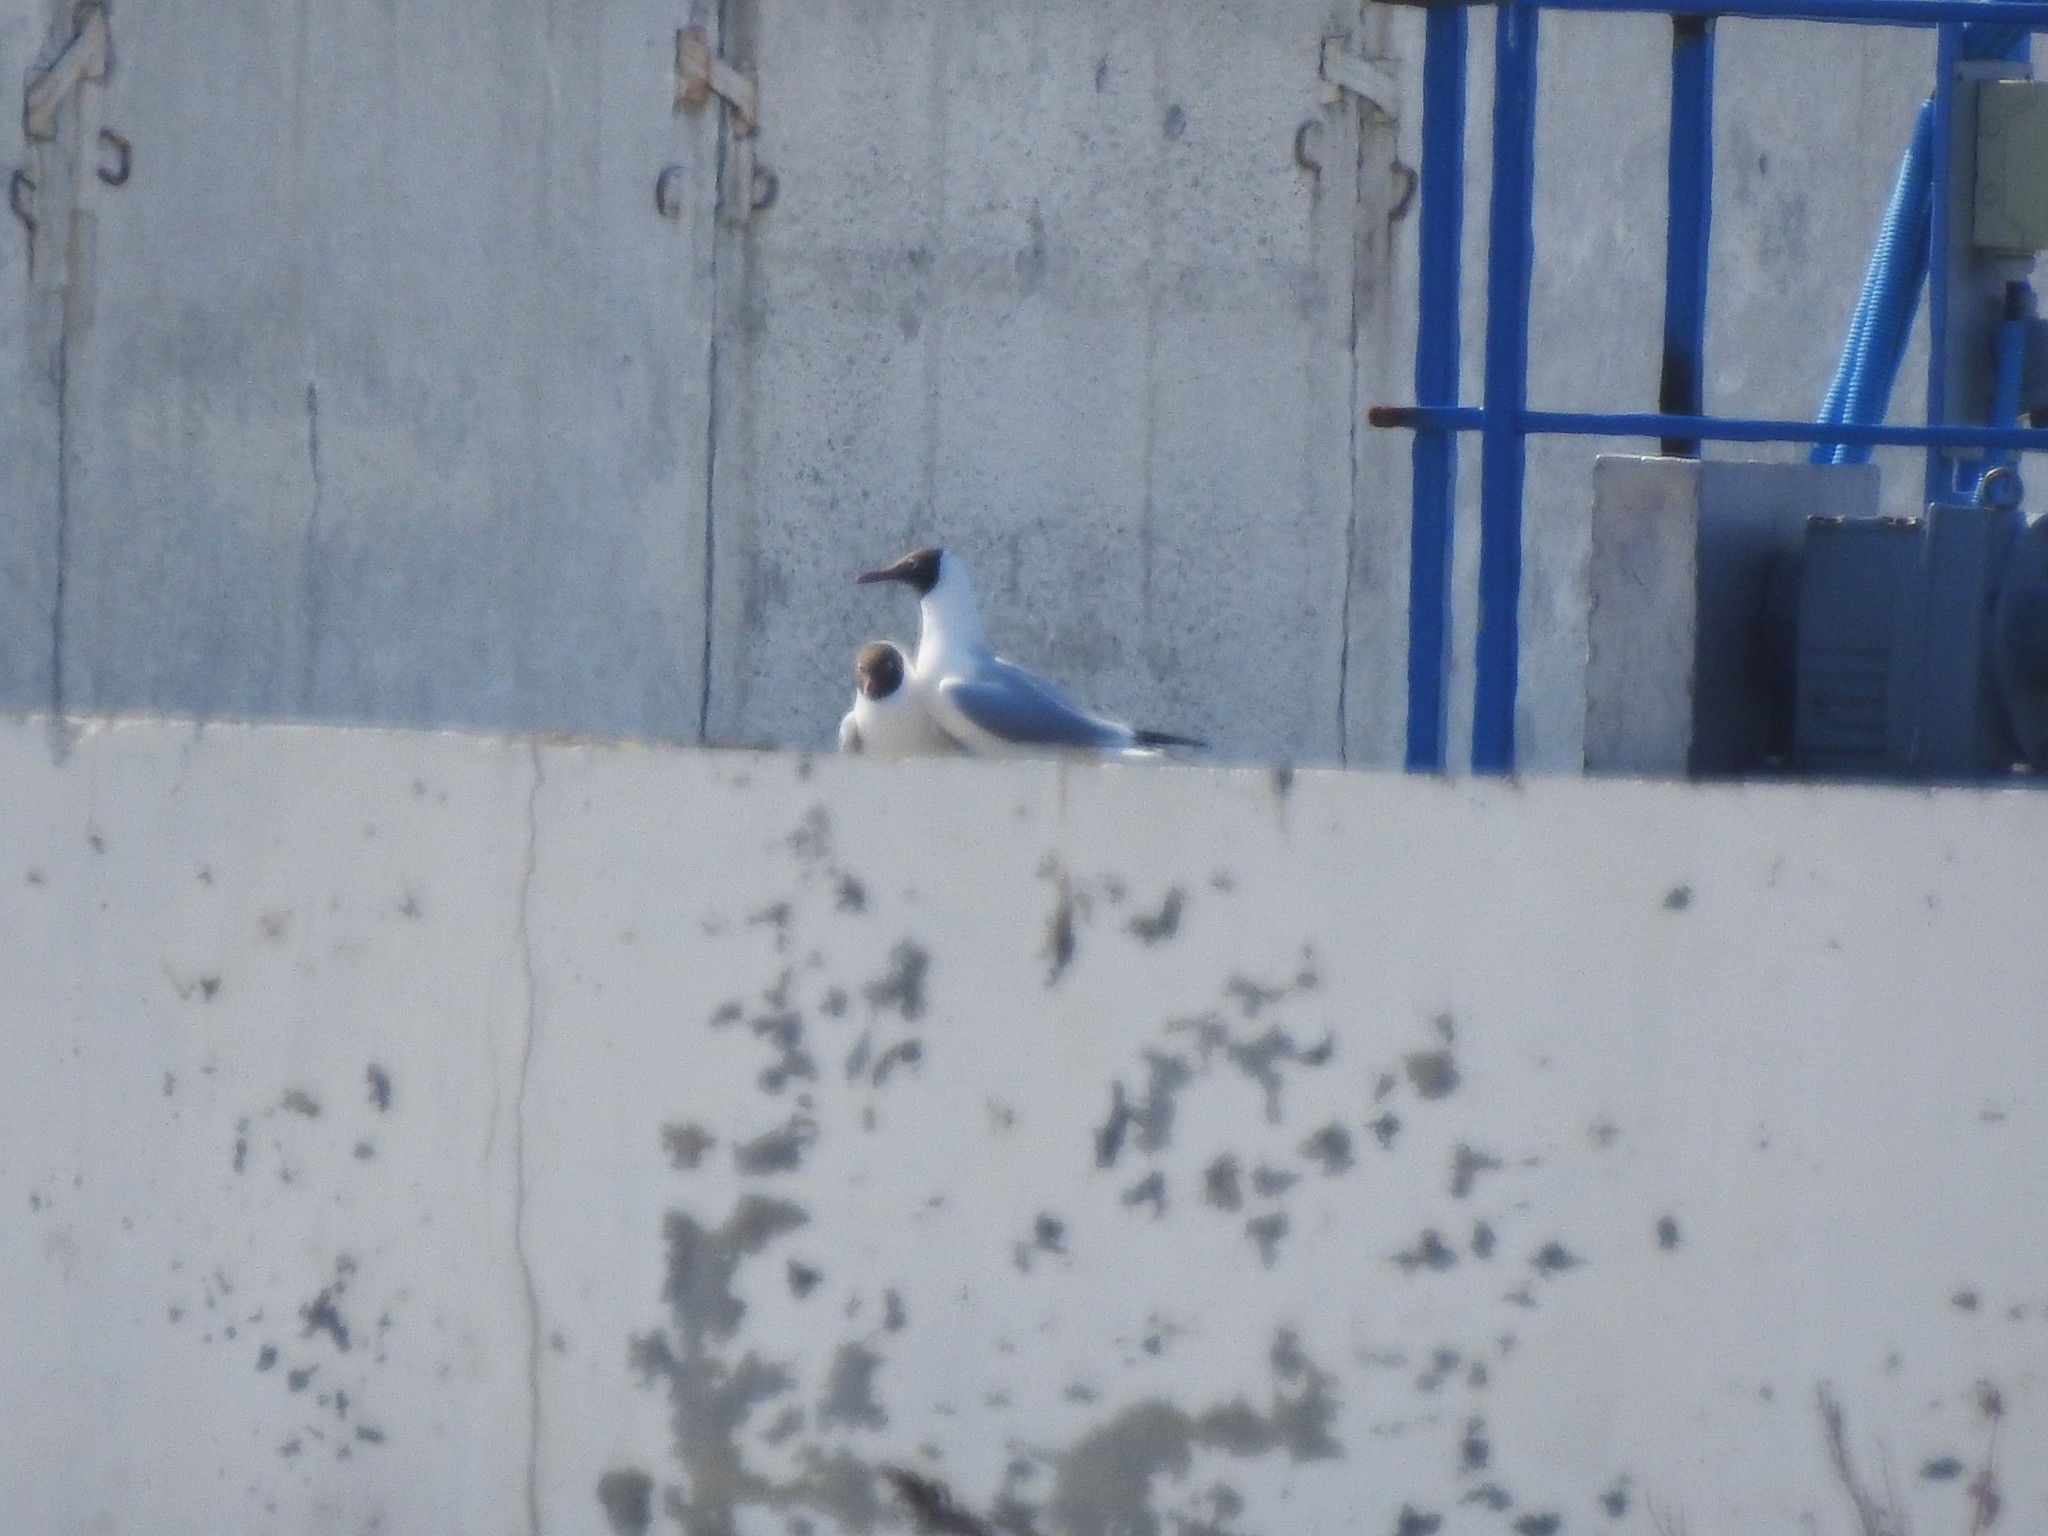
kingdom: Animalia
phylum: Chordata
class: Aves
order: Charadriiformes
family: Laridae
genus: Chroicocephalus
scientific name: Chroicocephalus ridibundus
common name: Black-headed gull
